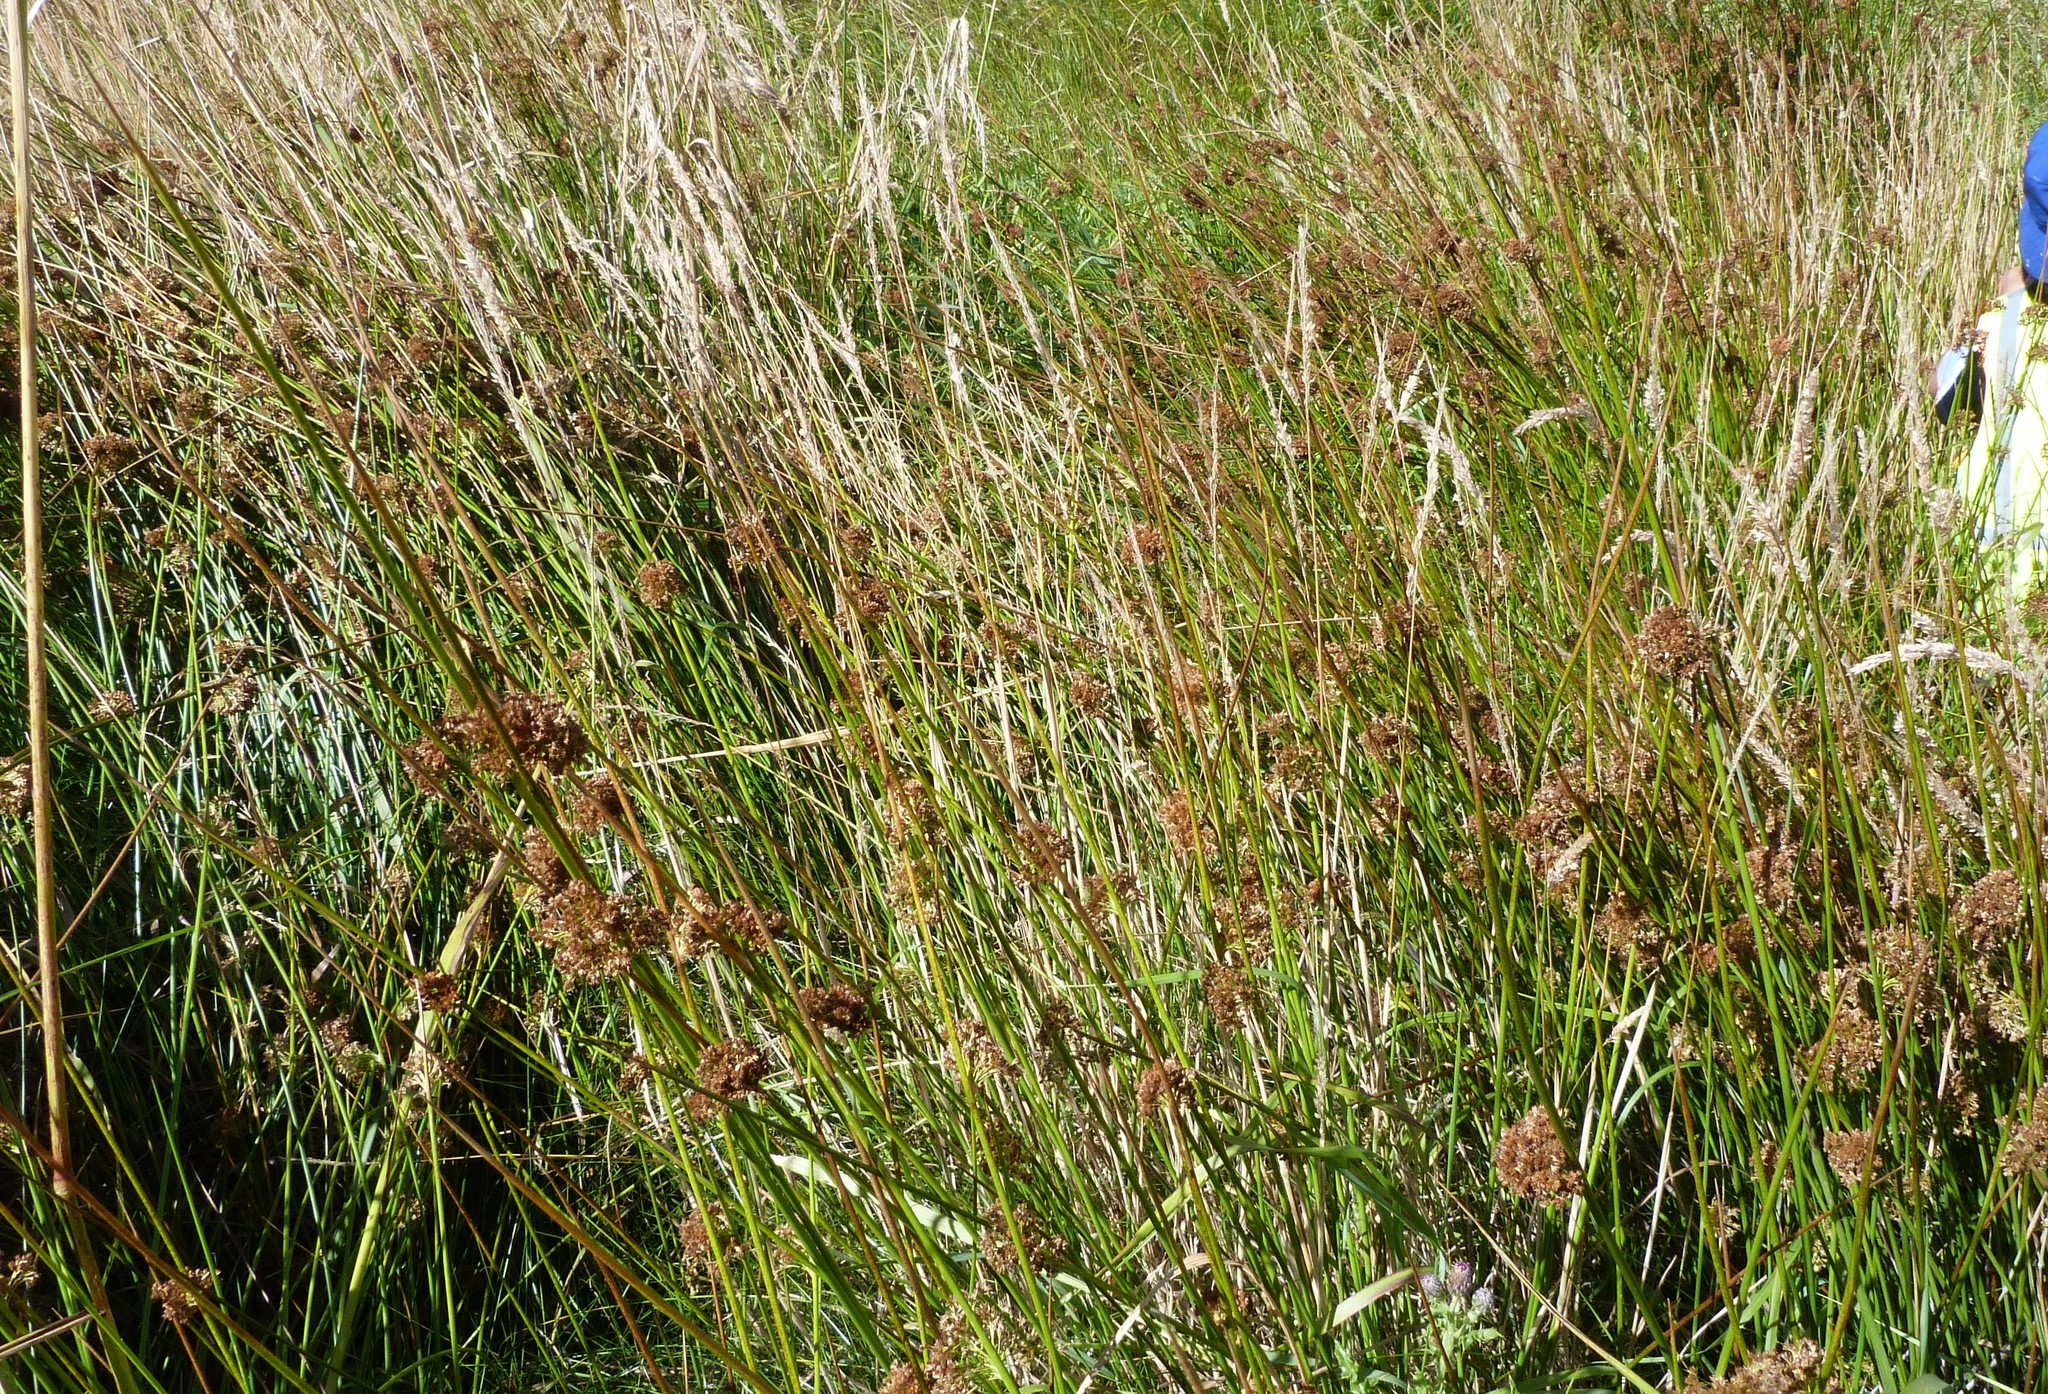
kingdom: Plantae
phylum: Tracheophyta
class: Liliopsida
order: Poales
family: Juncaceae
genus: Juncus
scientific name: Juncus effusus
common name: Soft rush
